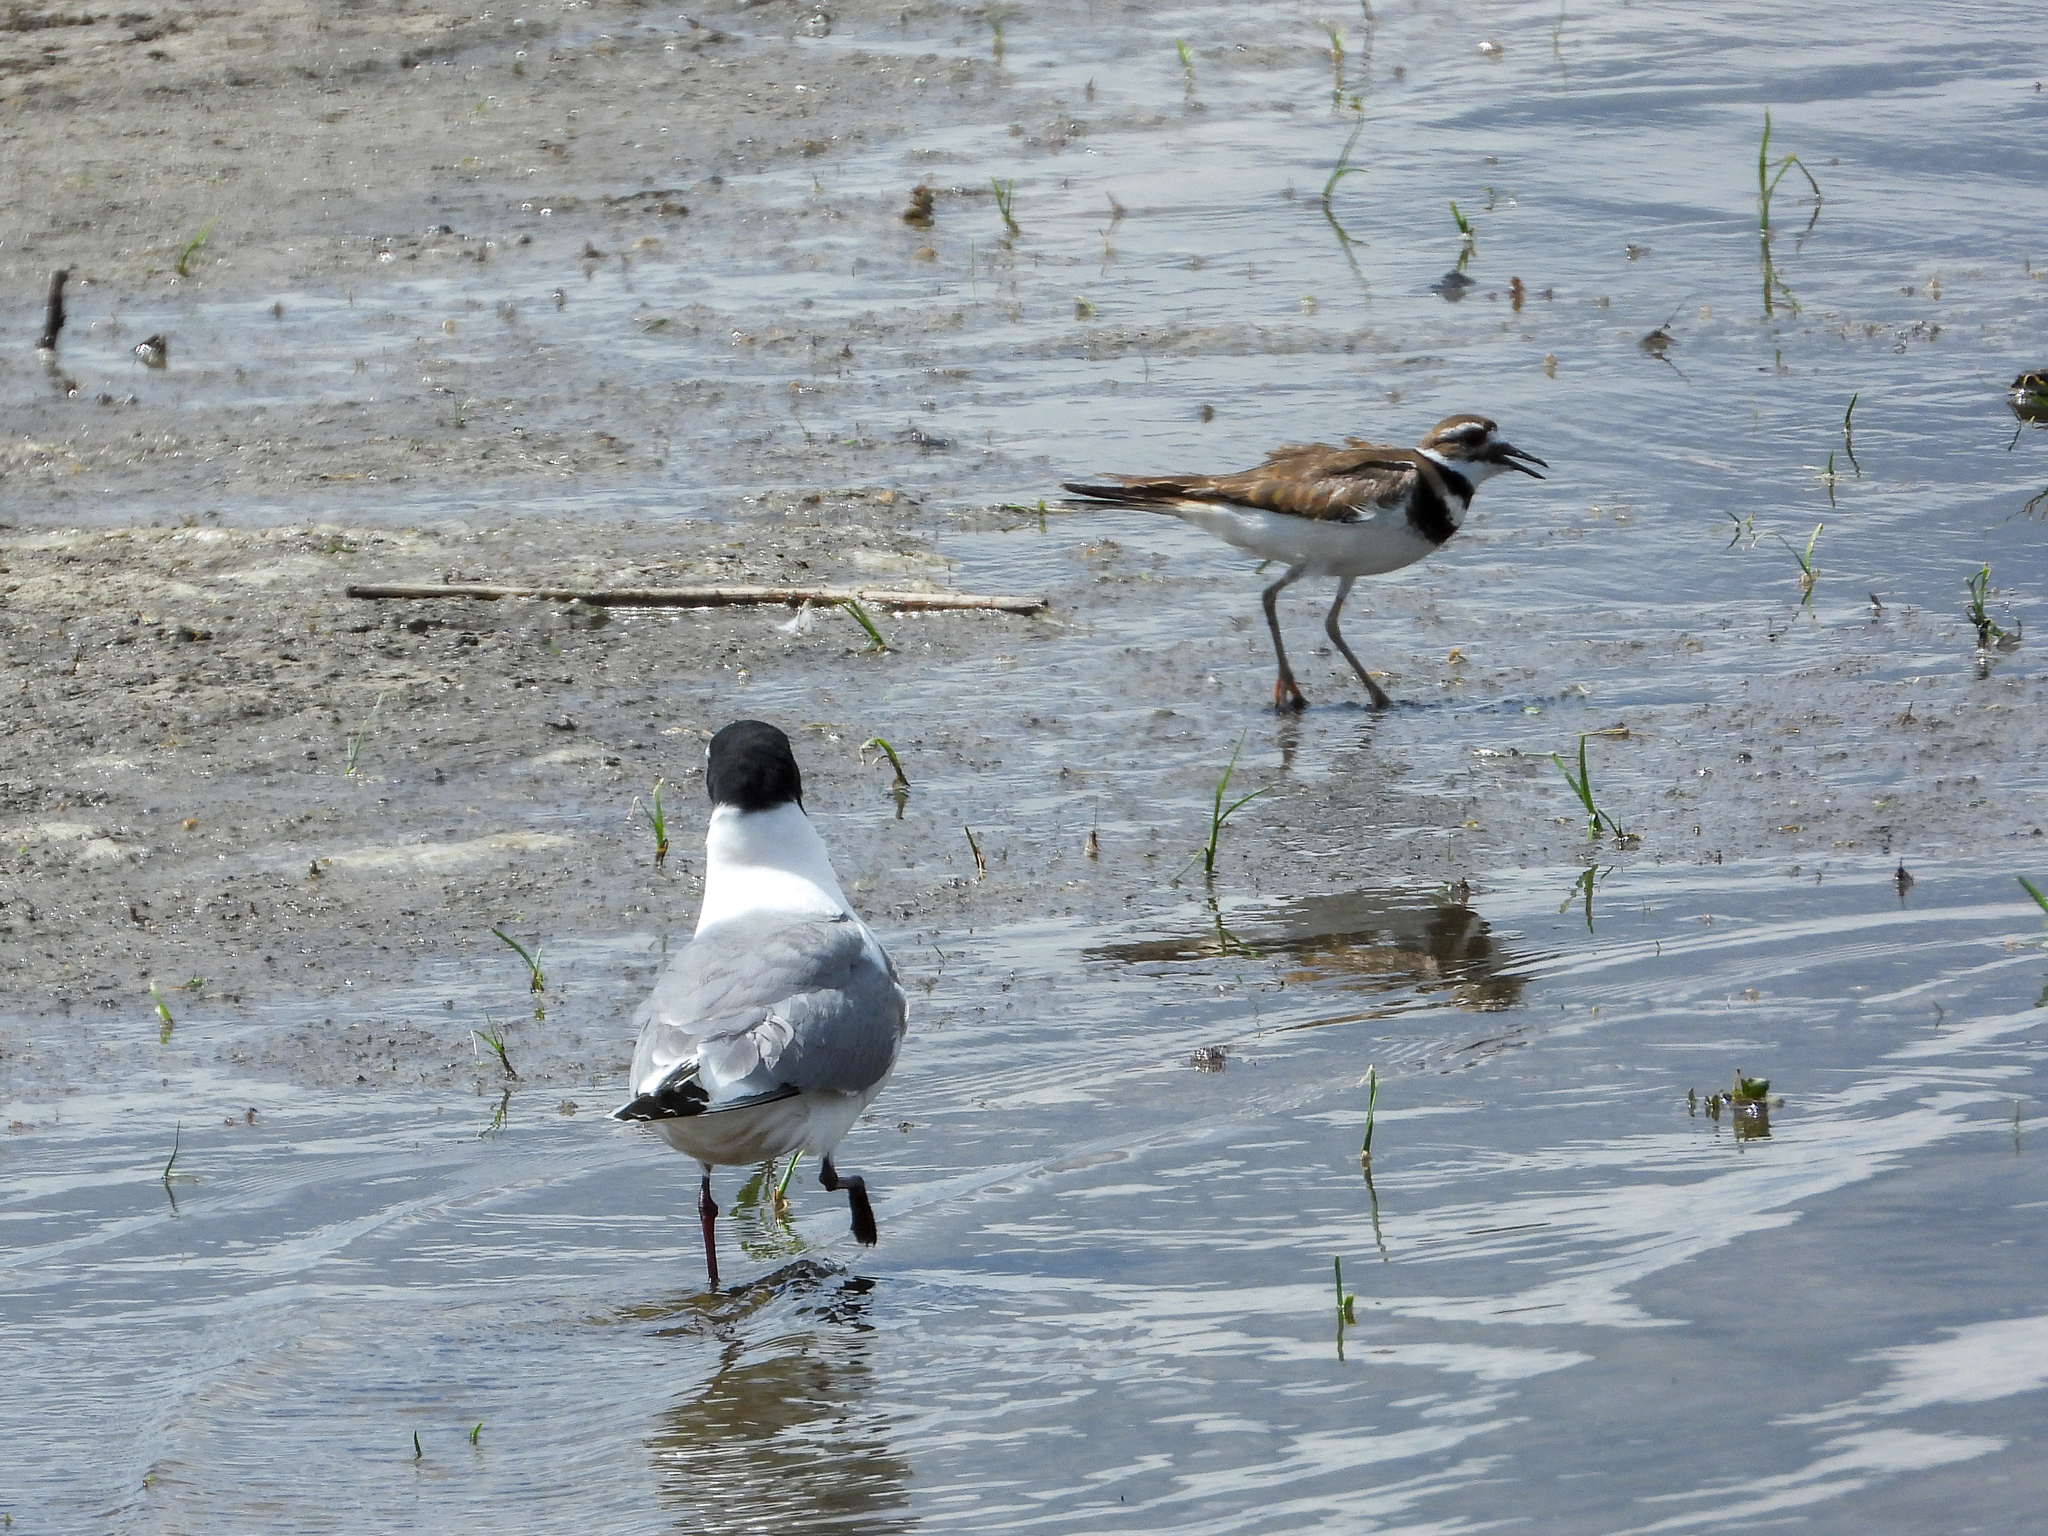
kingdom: Animalia
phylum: Chordata
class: Aves
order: Charadriiformes
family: Charadriidae
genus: Charadrius
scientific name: Charadrius vociferus
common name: Killdeer
